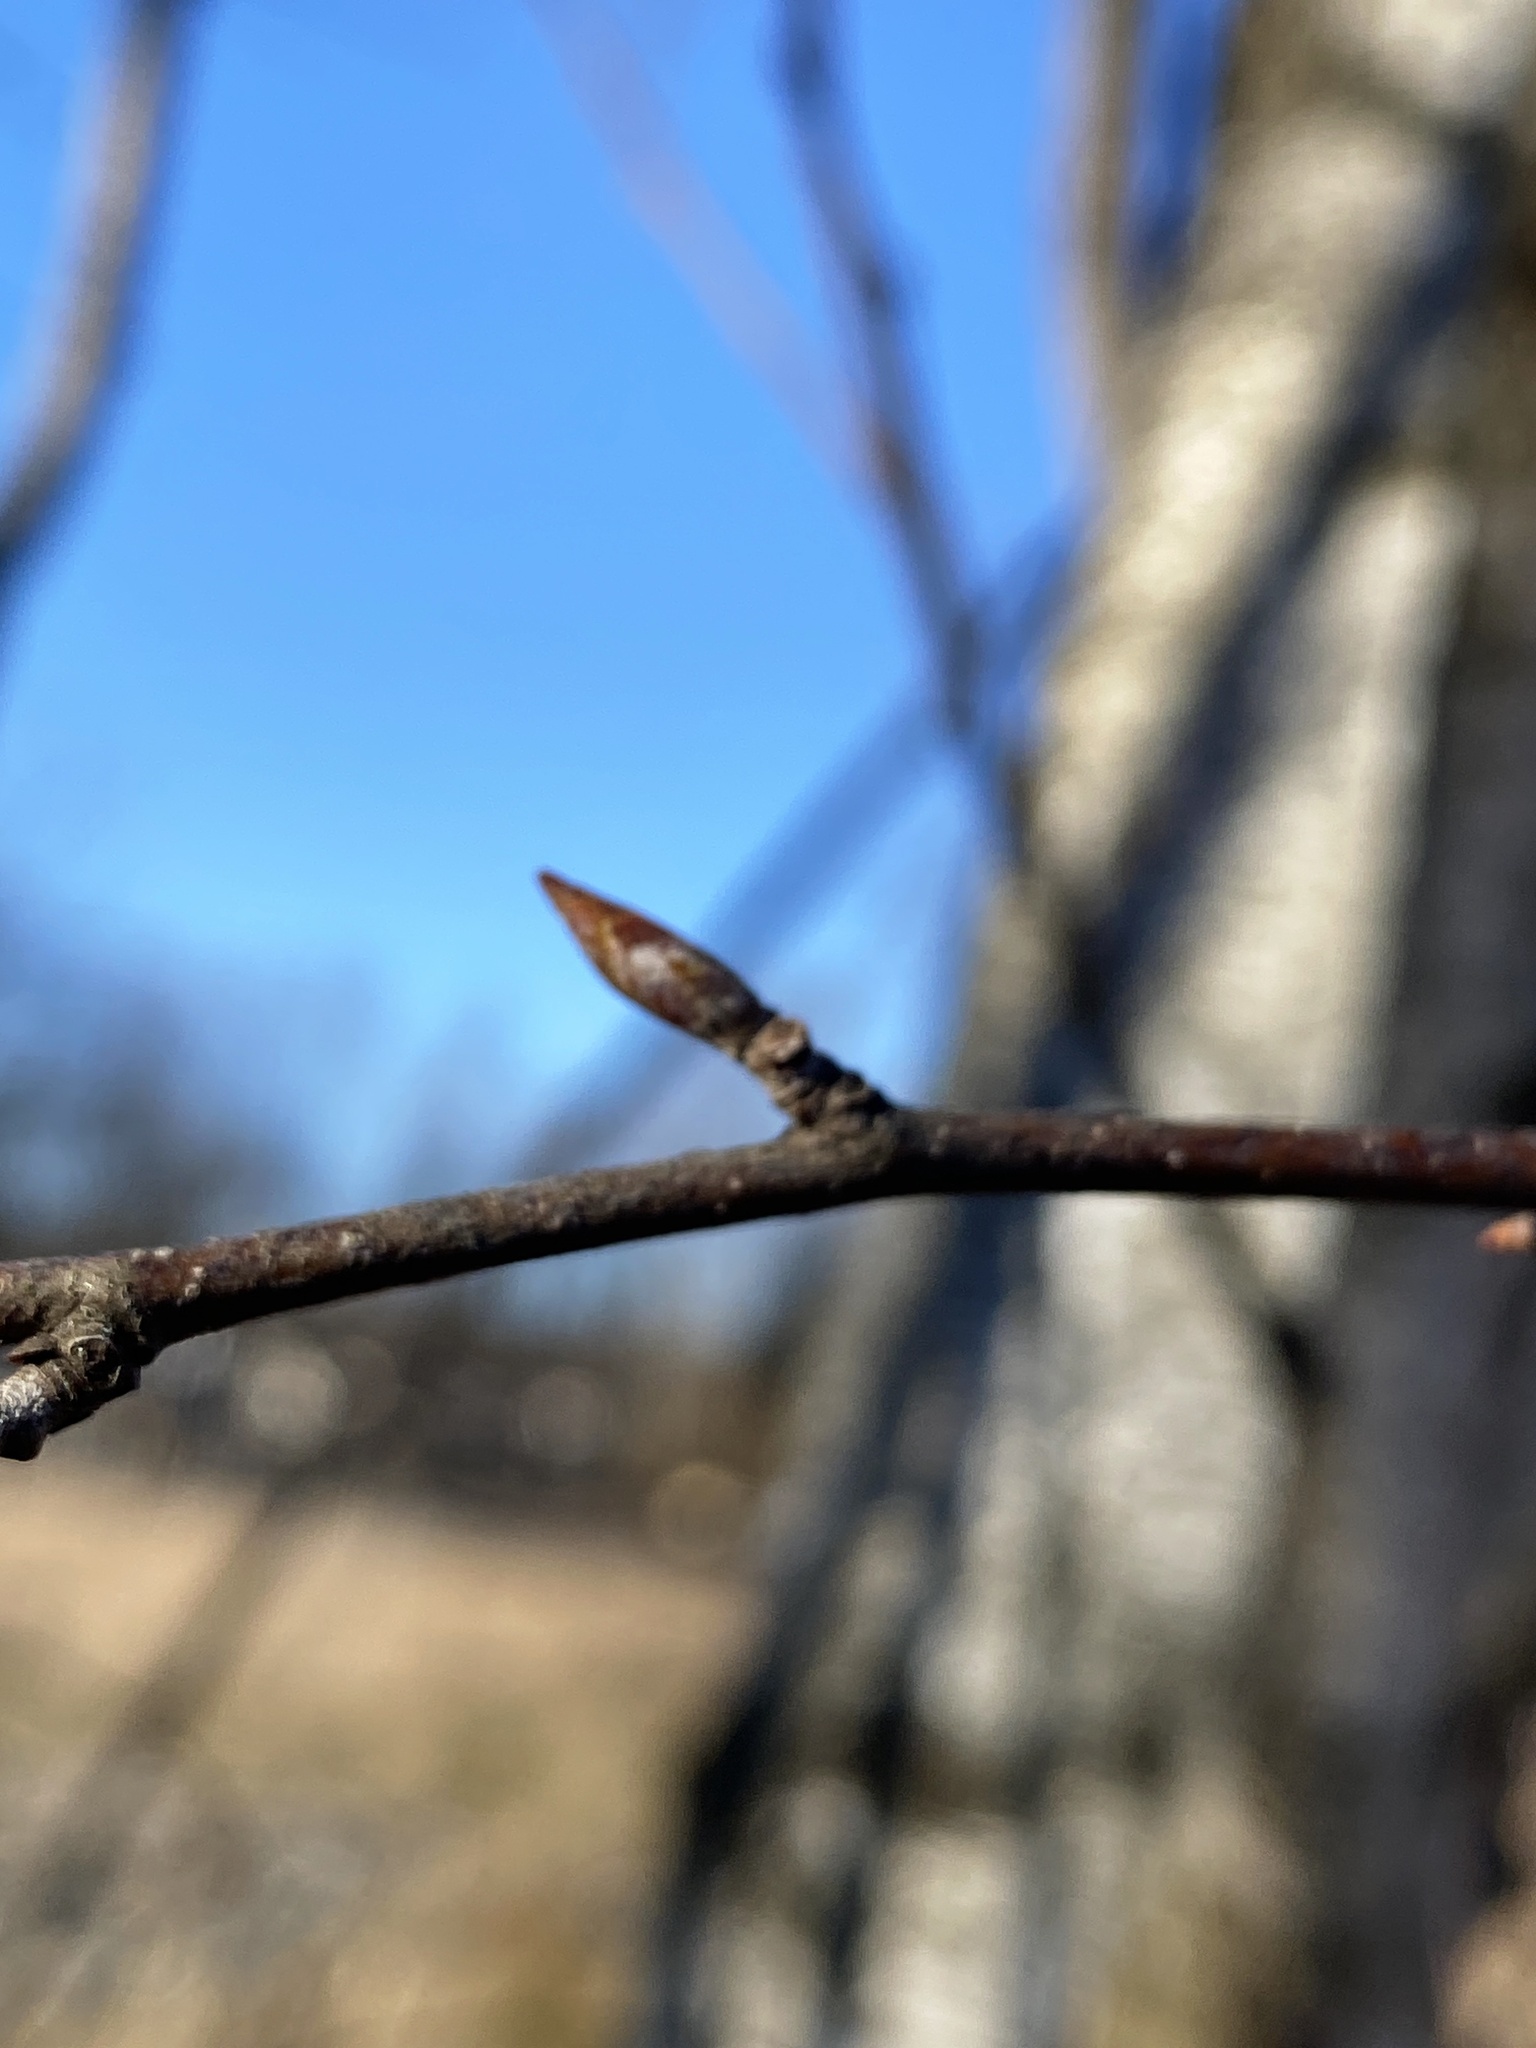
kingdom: Plantae
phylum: Tracheophyta
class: Magnoliopsida
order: Fagales
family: Betulaceae
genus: Betula
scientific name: Betula pendula
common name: Silver birch
